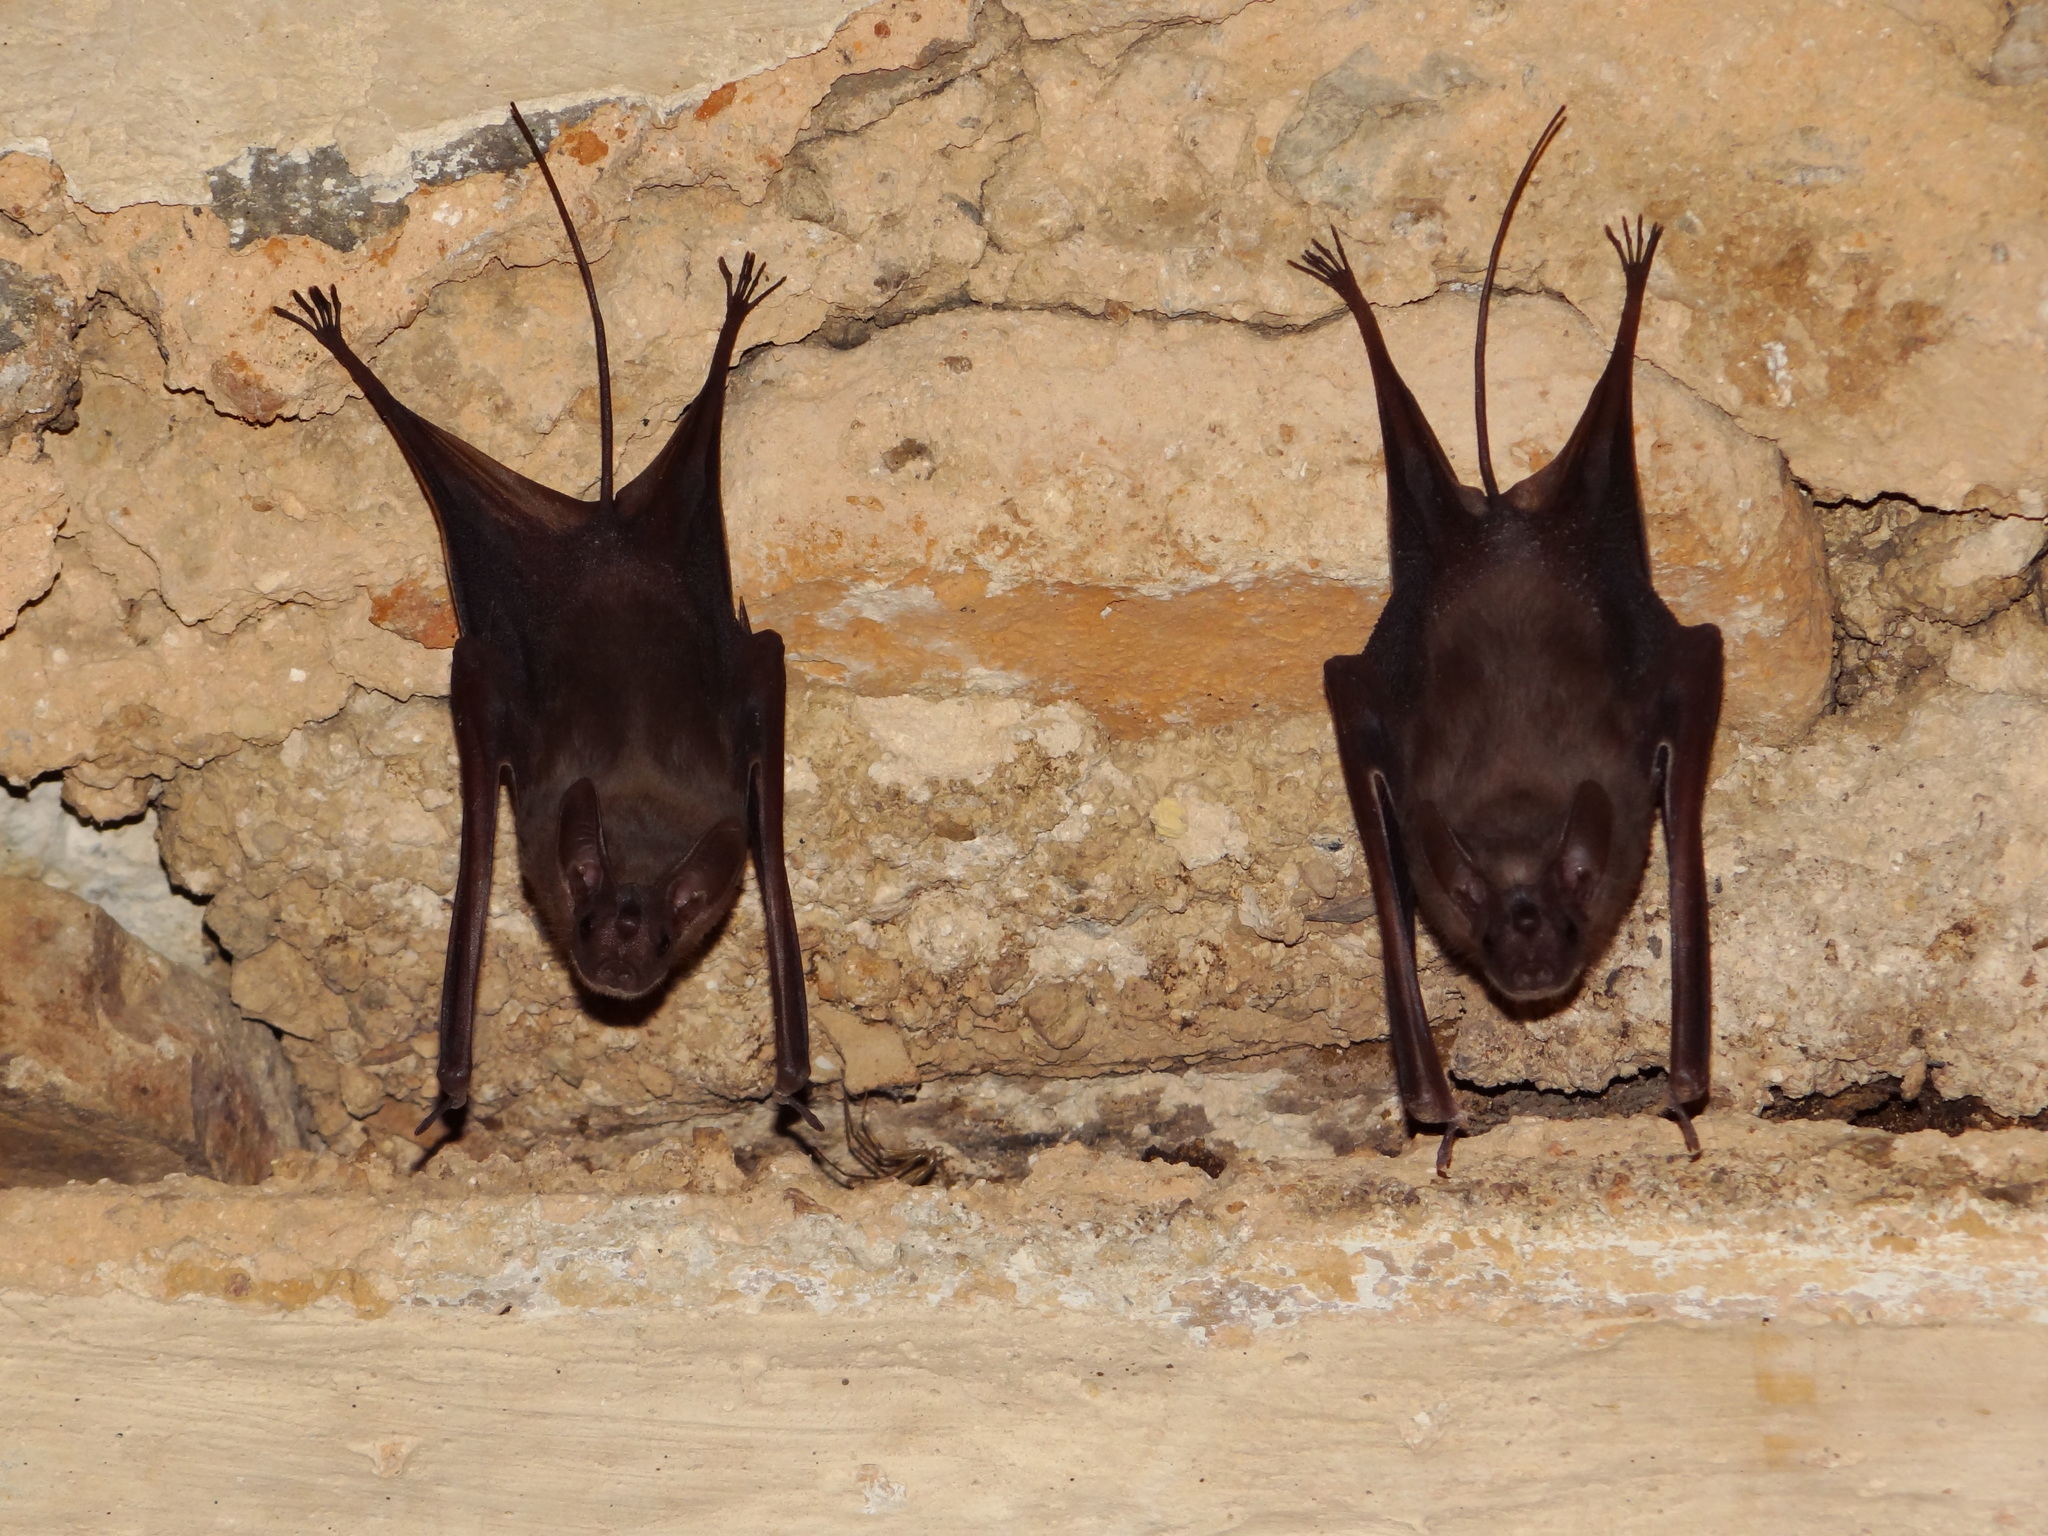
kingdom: Animalia
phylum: Chordata
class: Mammalia
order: Chiroptera
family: Rhinopomatidae
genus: Rhinopoma
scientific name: Rhinopoma hardwickii
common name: Lesser mouse-tailed bat
